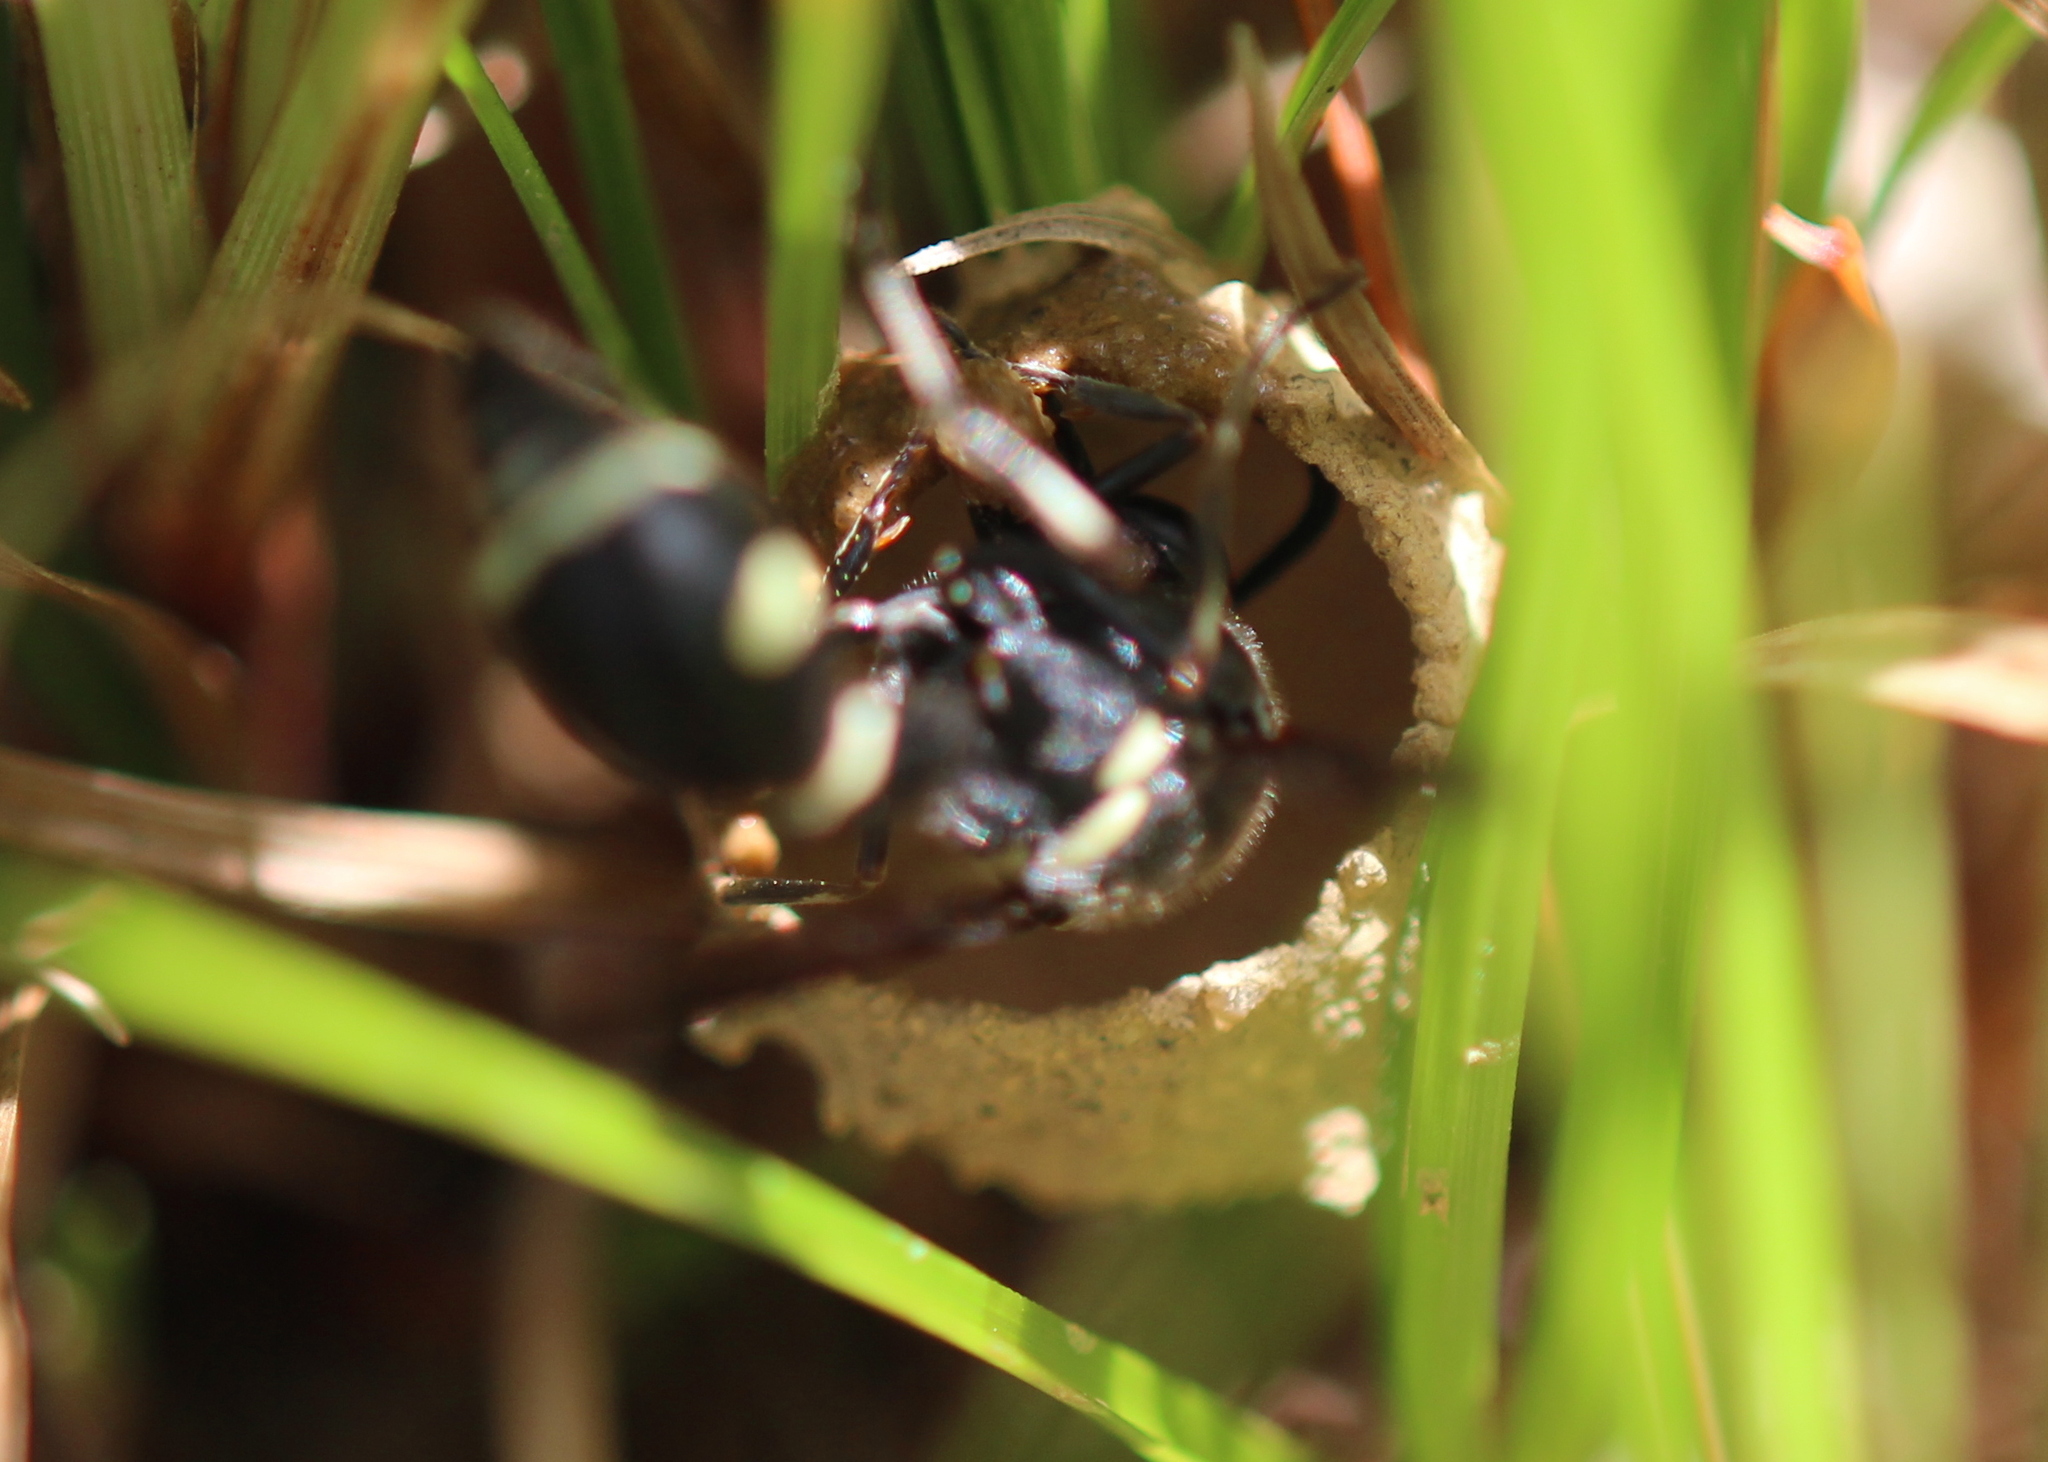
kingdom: Animalia
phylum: Arthropoda
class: Insecta
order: Hymenoptera
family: Vespidae
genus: Eumenes
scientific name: Eumenes fraternus
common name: Fraternal potter wasp
